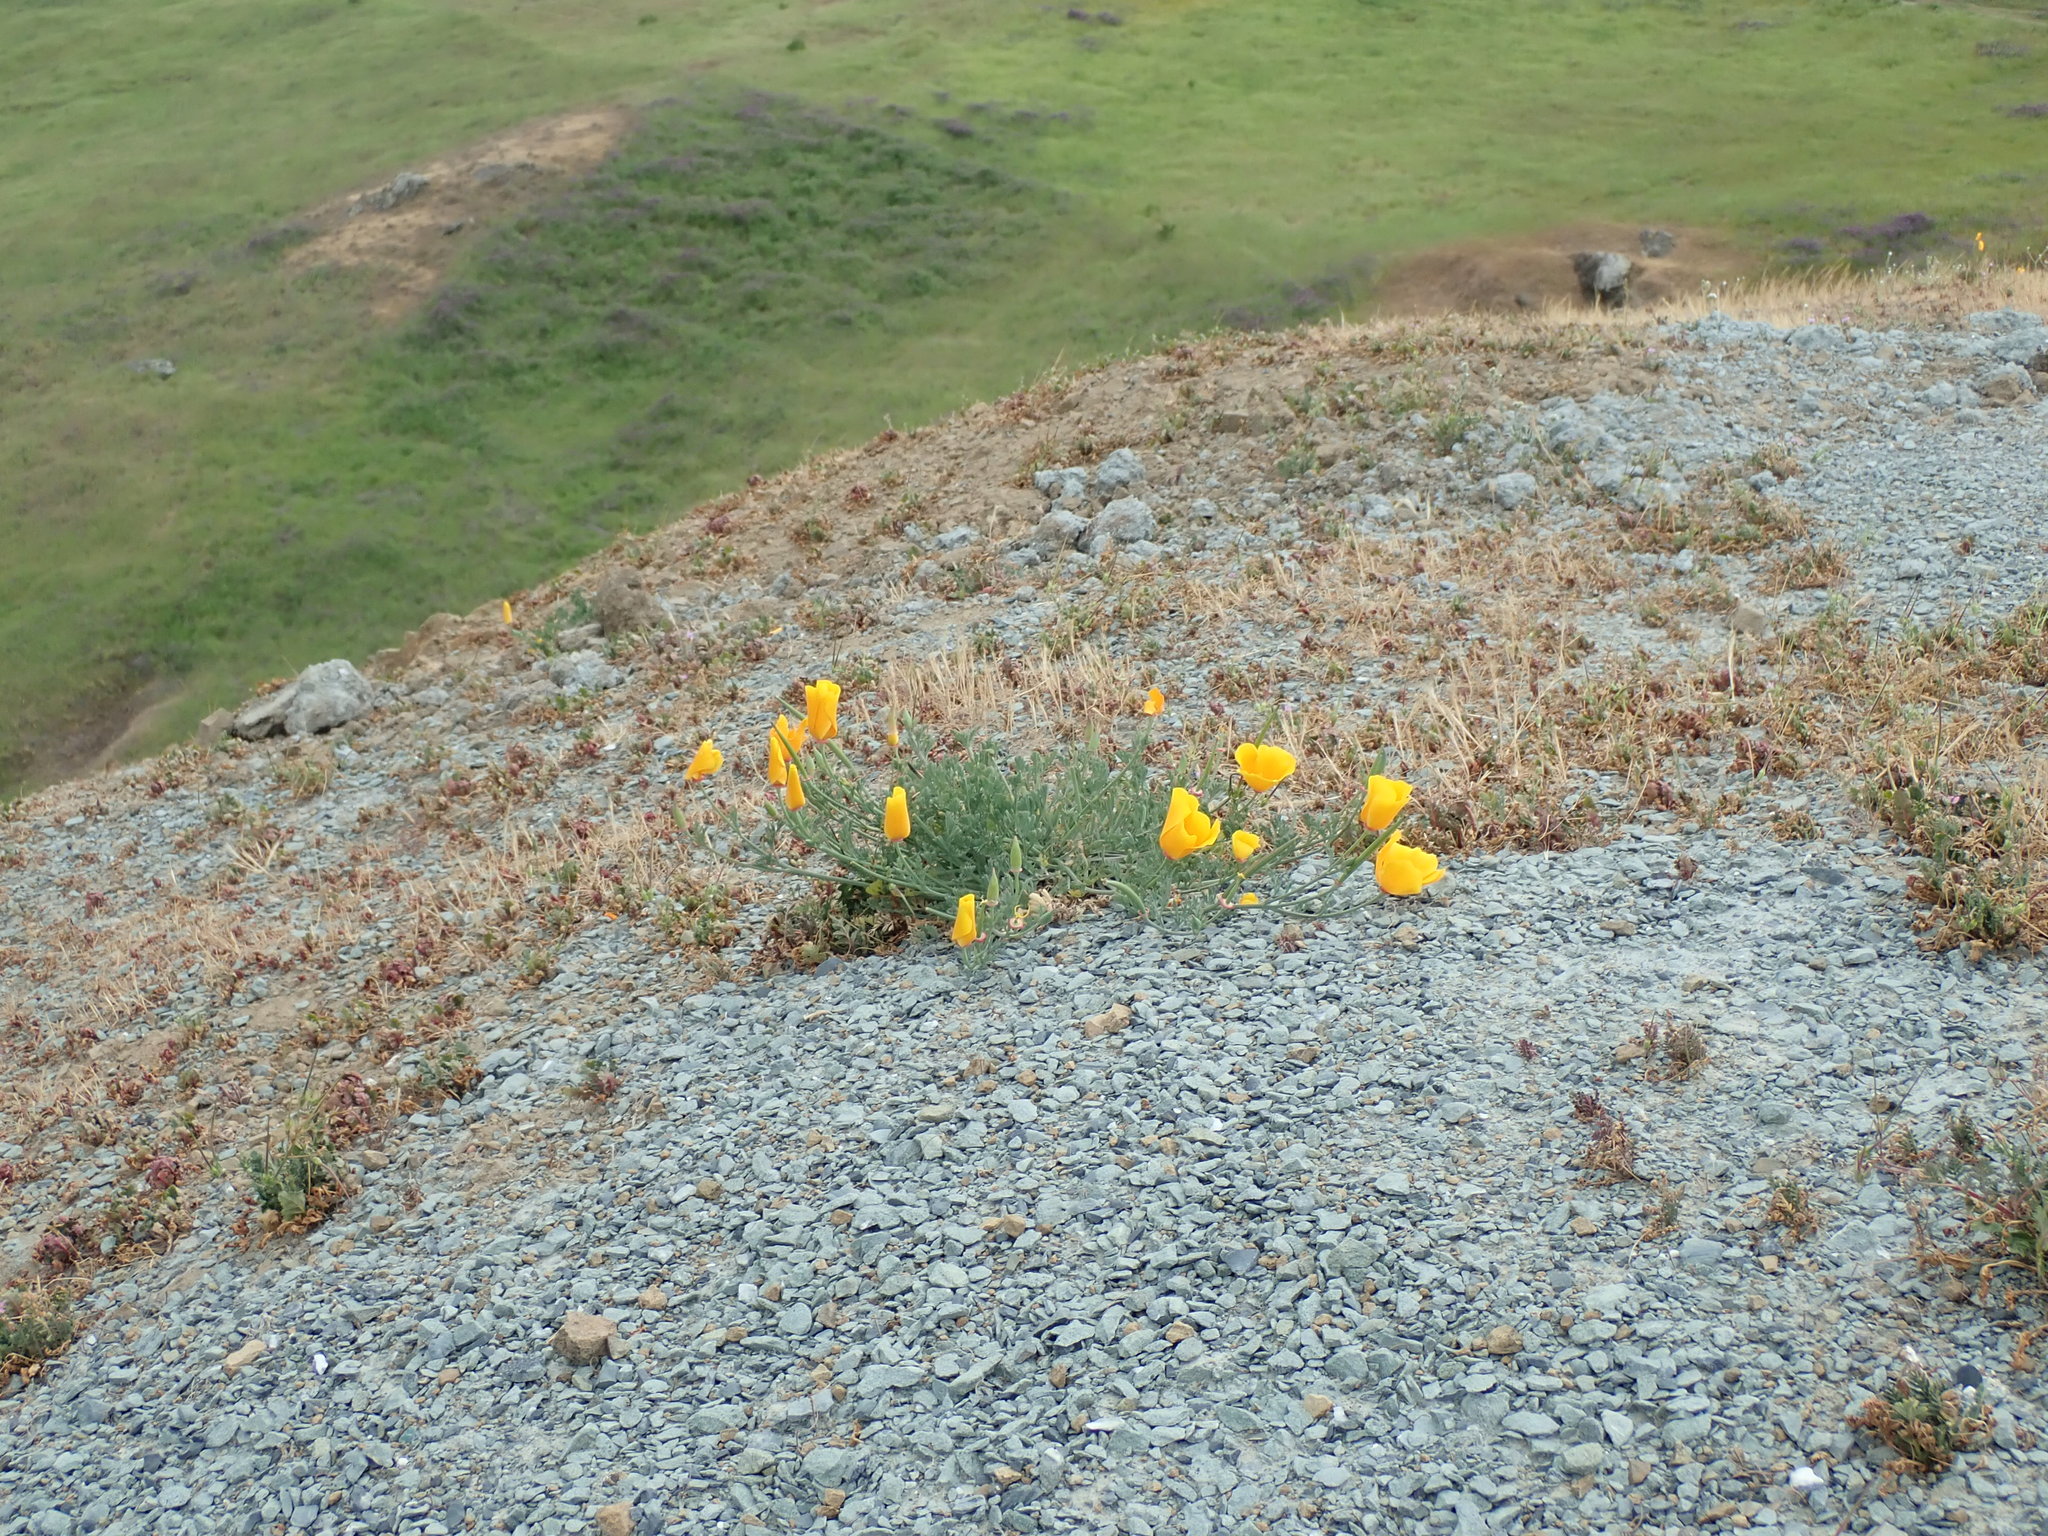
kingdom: Plantae
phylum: Tracheophyta
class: Magnoliopsida
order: Ranunculales
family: Papaveraceae
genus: Eschscholzia
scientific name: Eschscholzia californica
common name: California poppy
